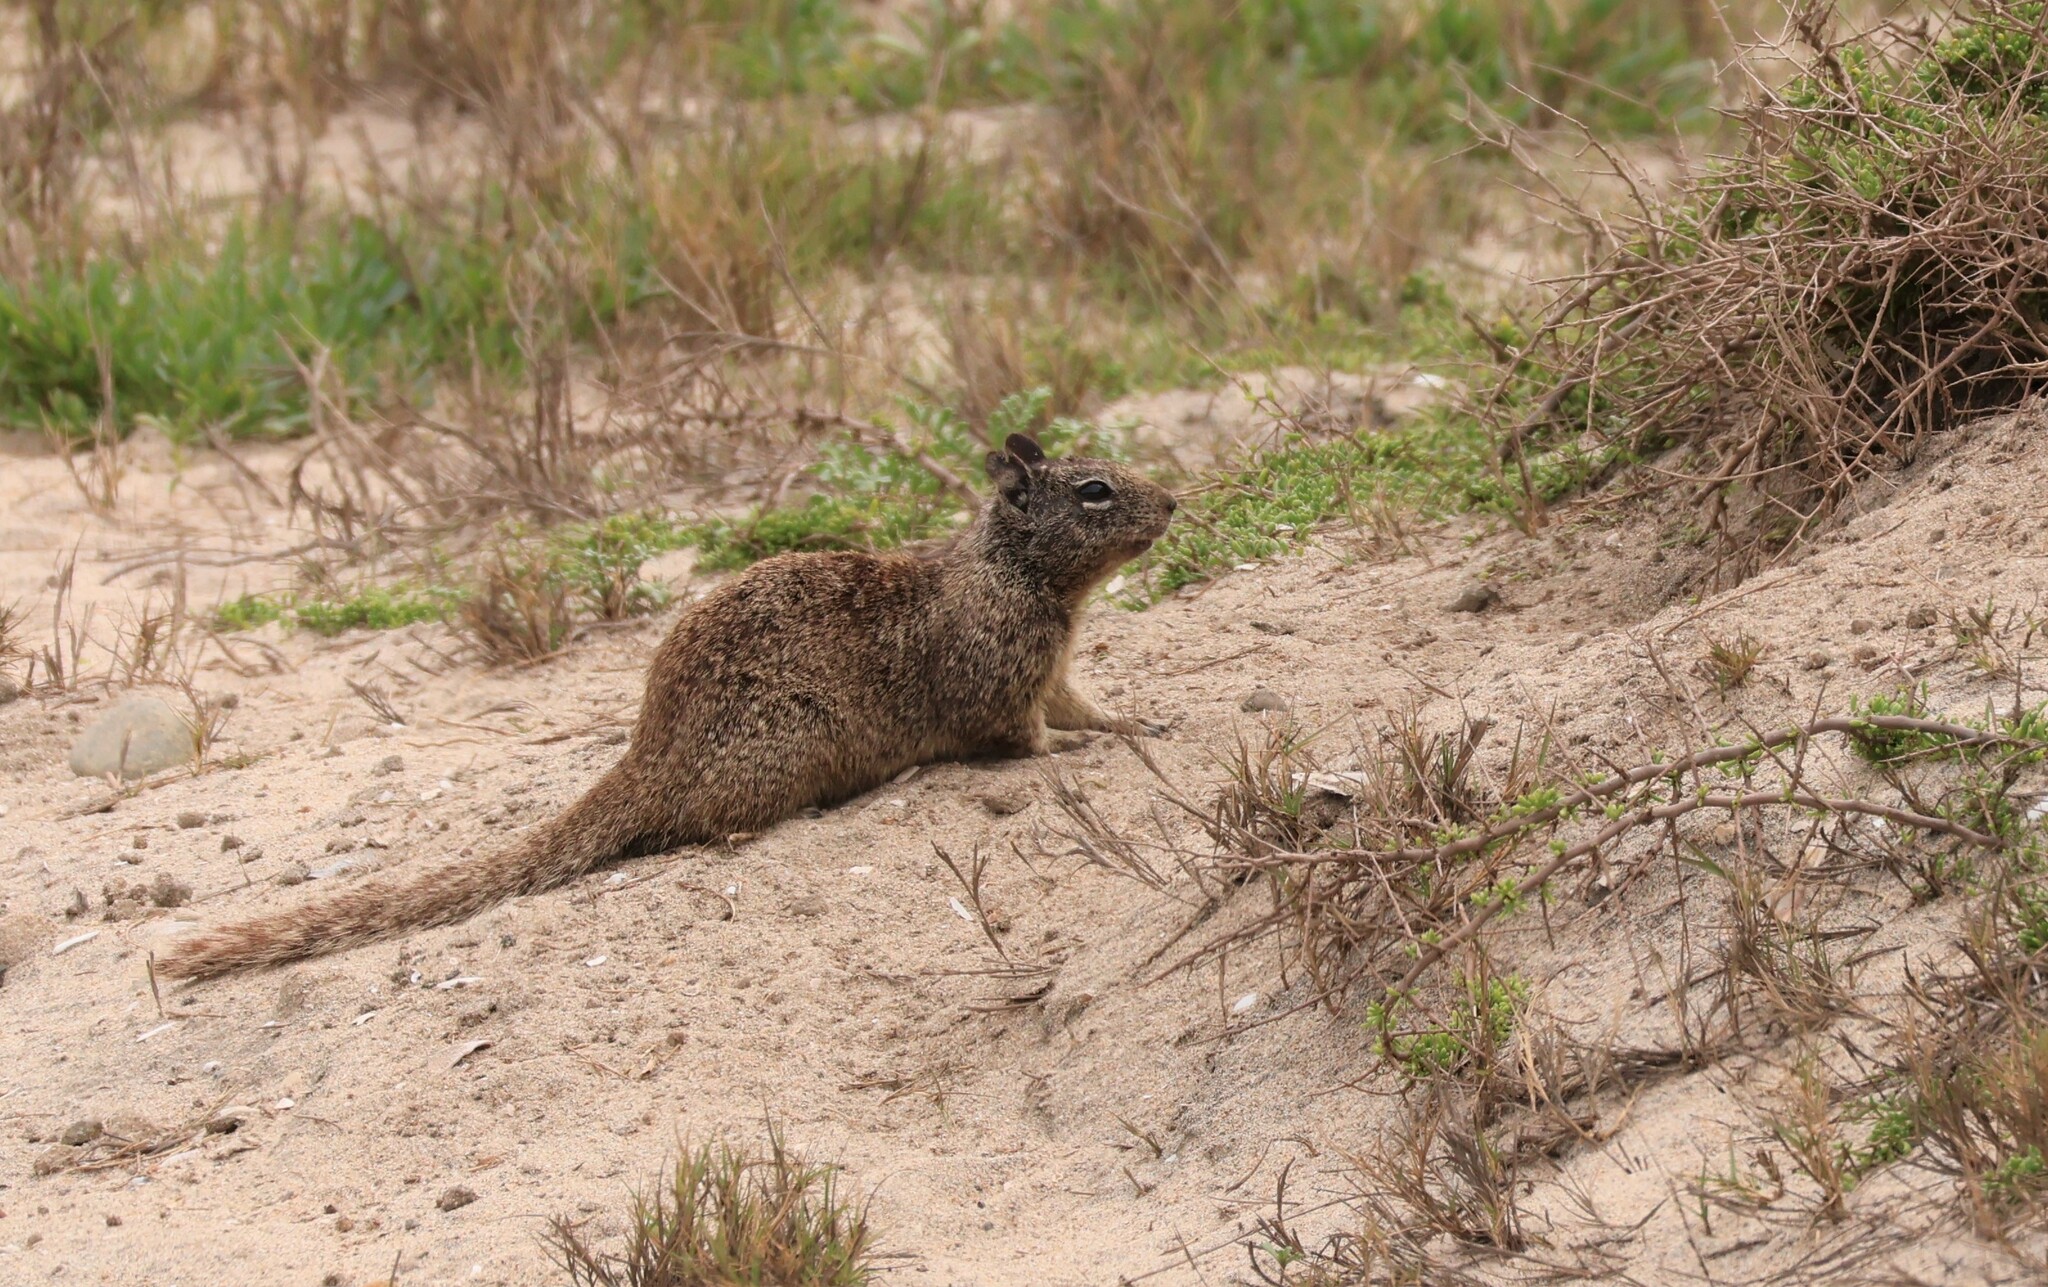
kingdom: Animalia
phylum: Chordata
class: Mammalia
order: Rodentia
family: Sciuridae
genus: Otospermophilus
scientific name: Otospermophilus beecheyi
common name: California ground squirrel
